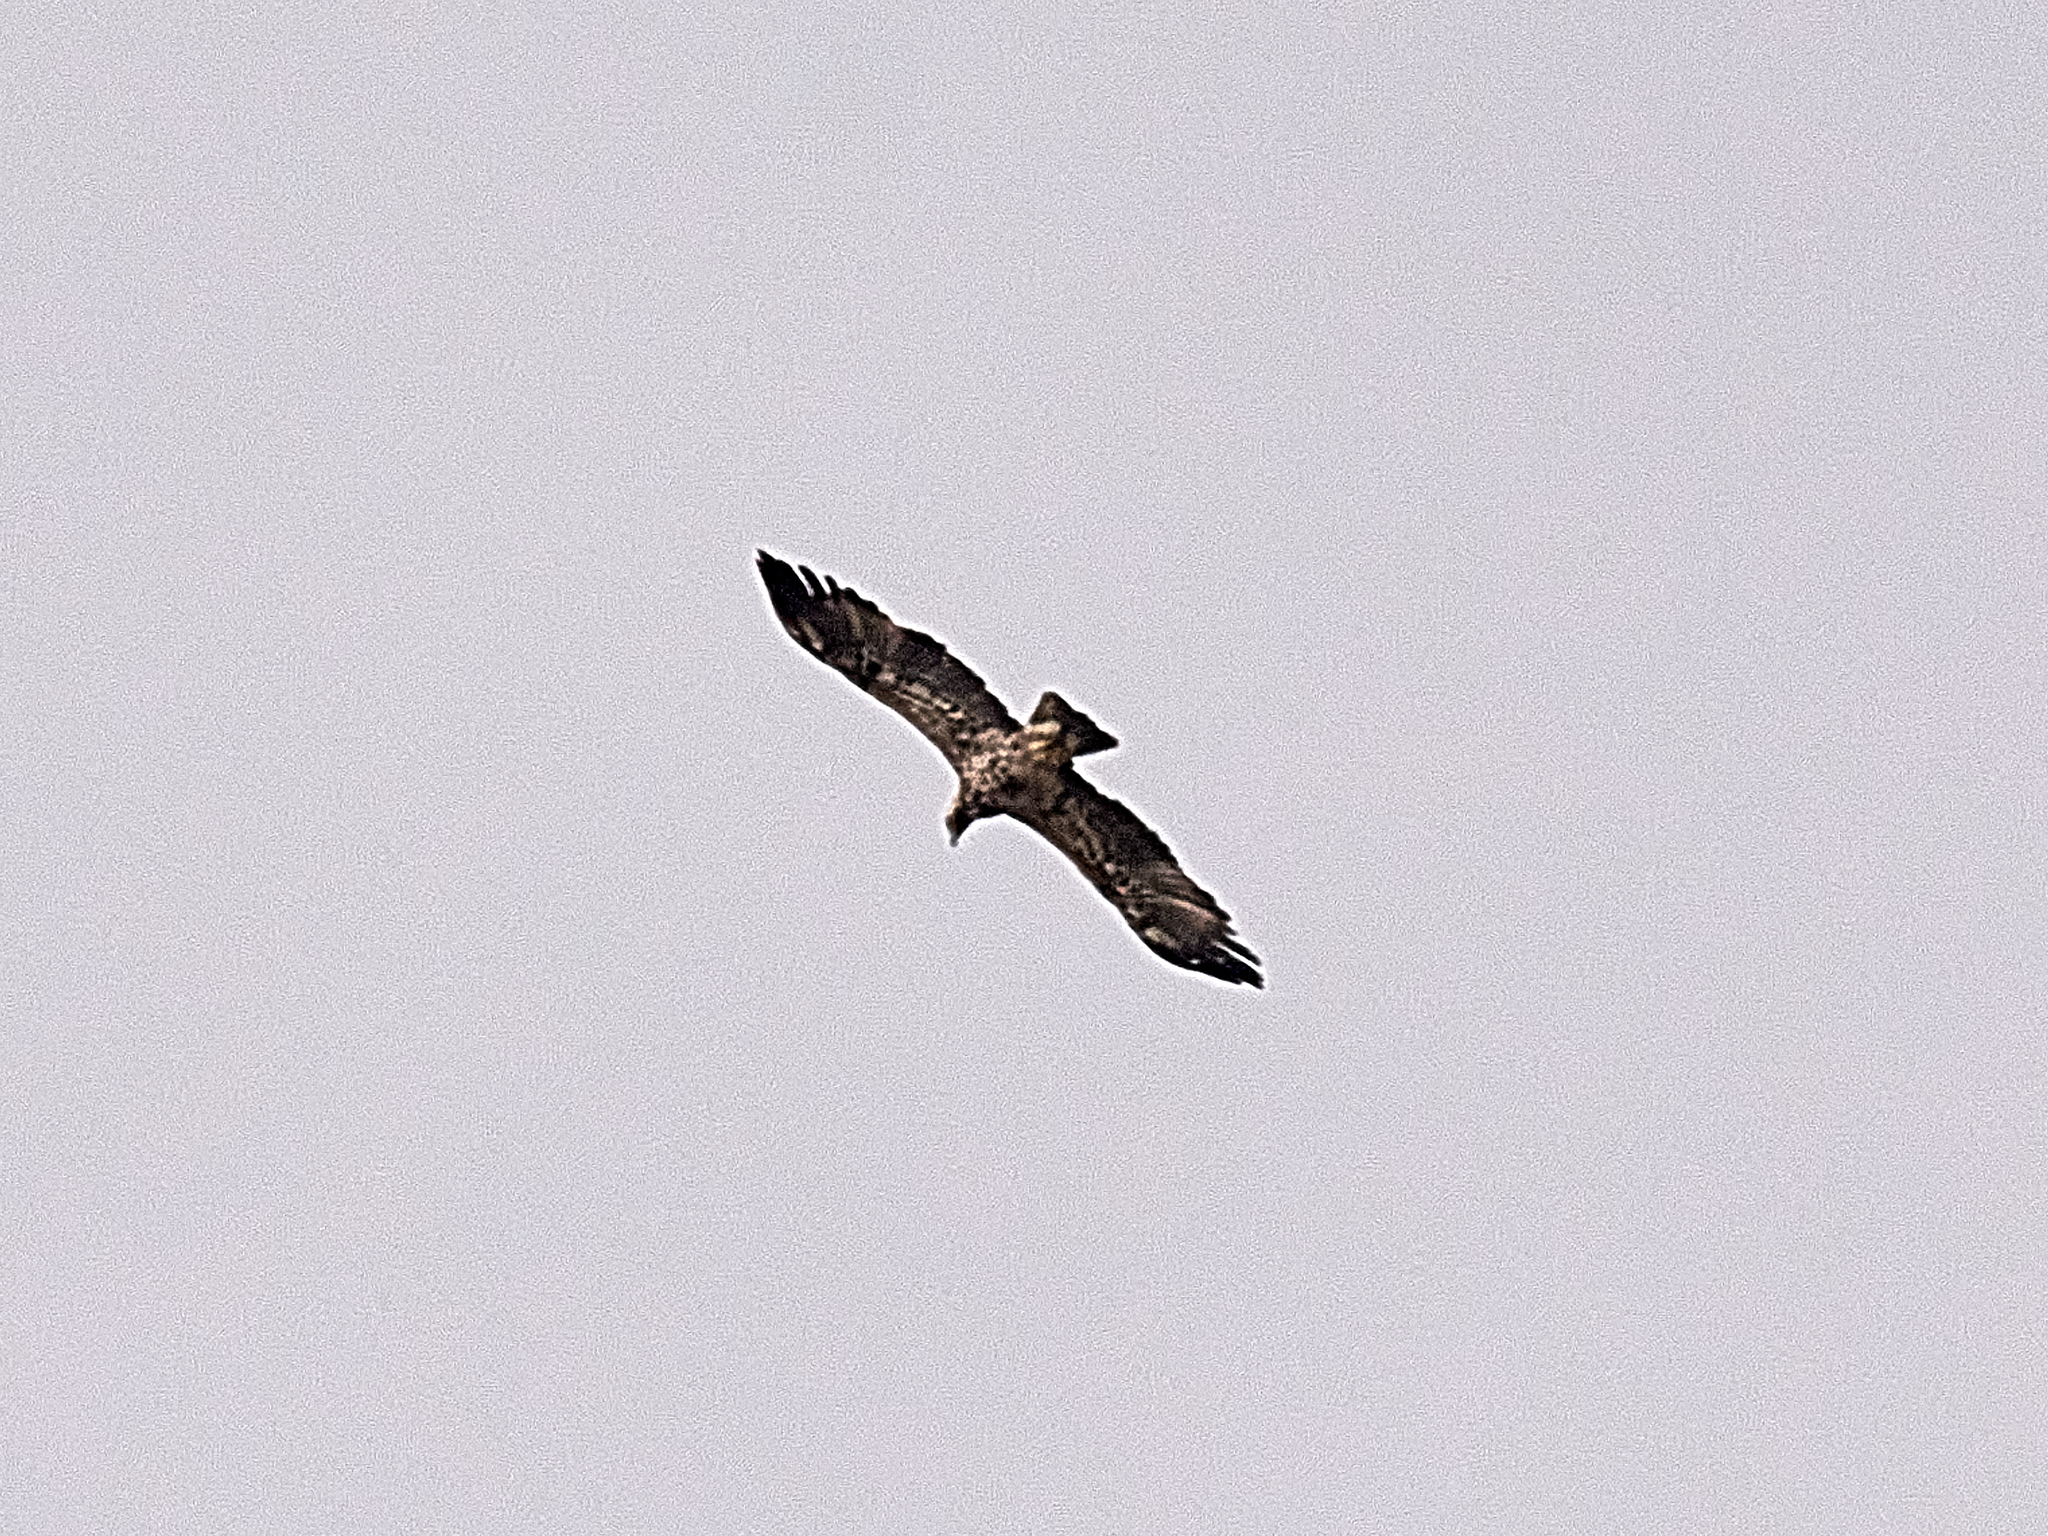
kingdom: Animalia
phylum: Chordata
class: Aves
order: Accipitriformes
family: Accipitridae
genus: Aquila
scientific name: Aquila heliaca
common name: Eastern imperial eagle
